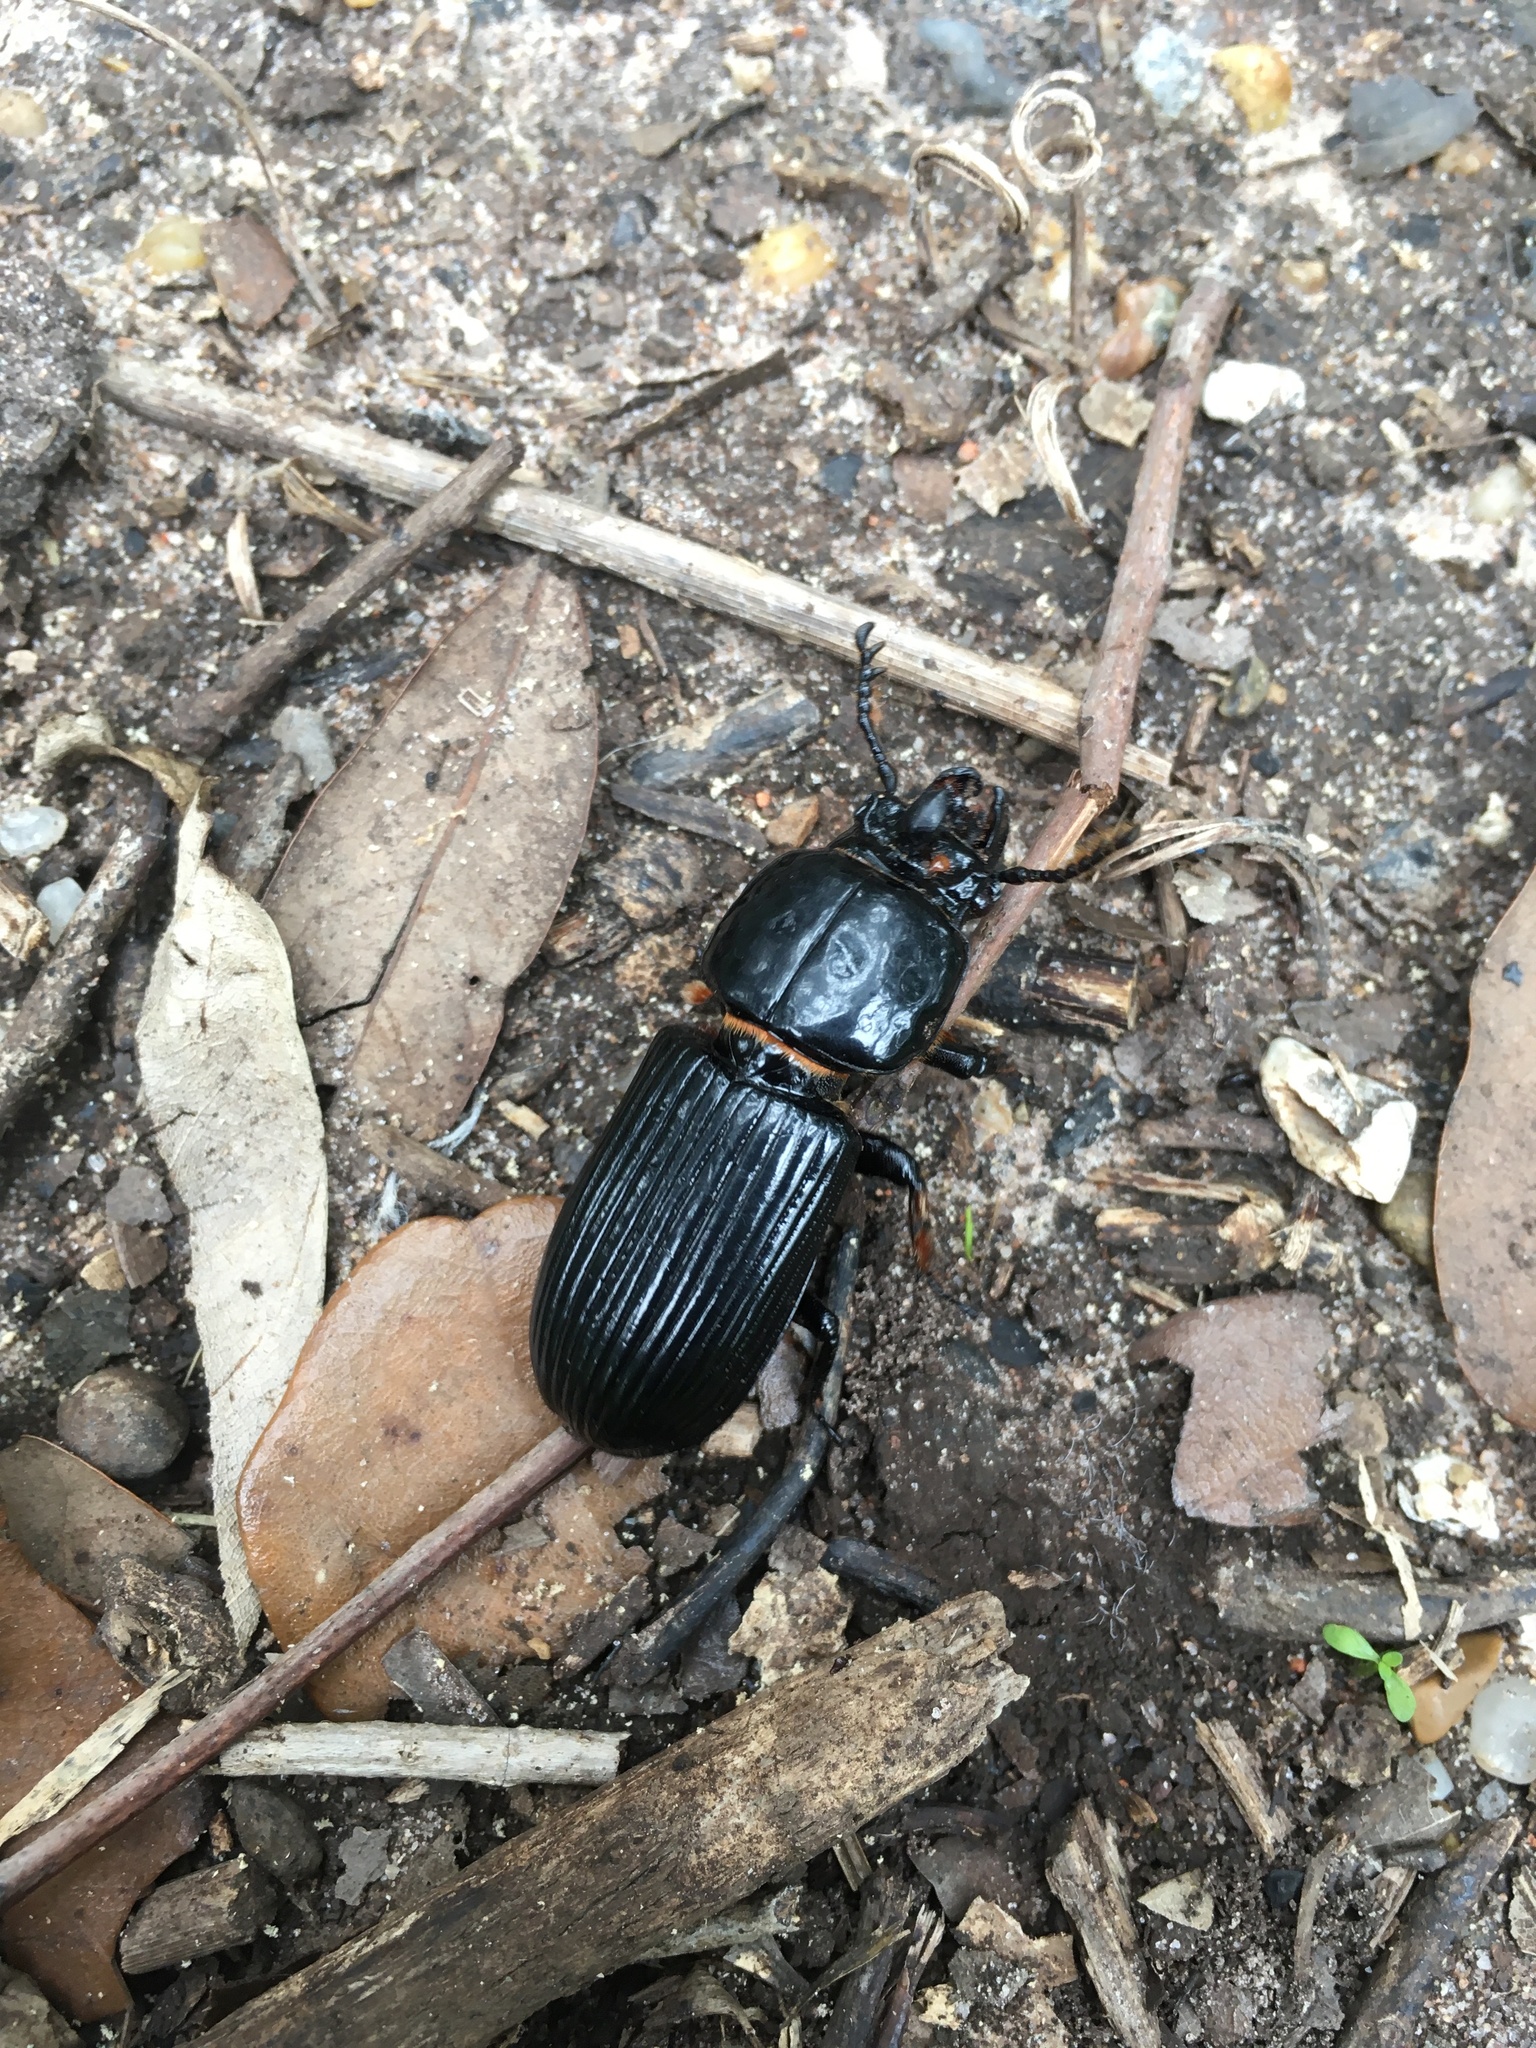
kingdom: Animalia
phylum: Arthropoda
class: Insecta
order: Coleoptera
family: Passalidae
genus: Odontotaenius
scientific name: Odontotaenius disjunctus
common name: Patent leather beetle
